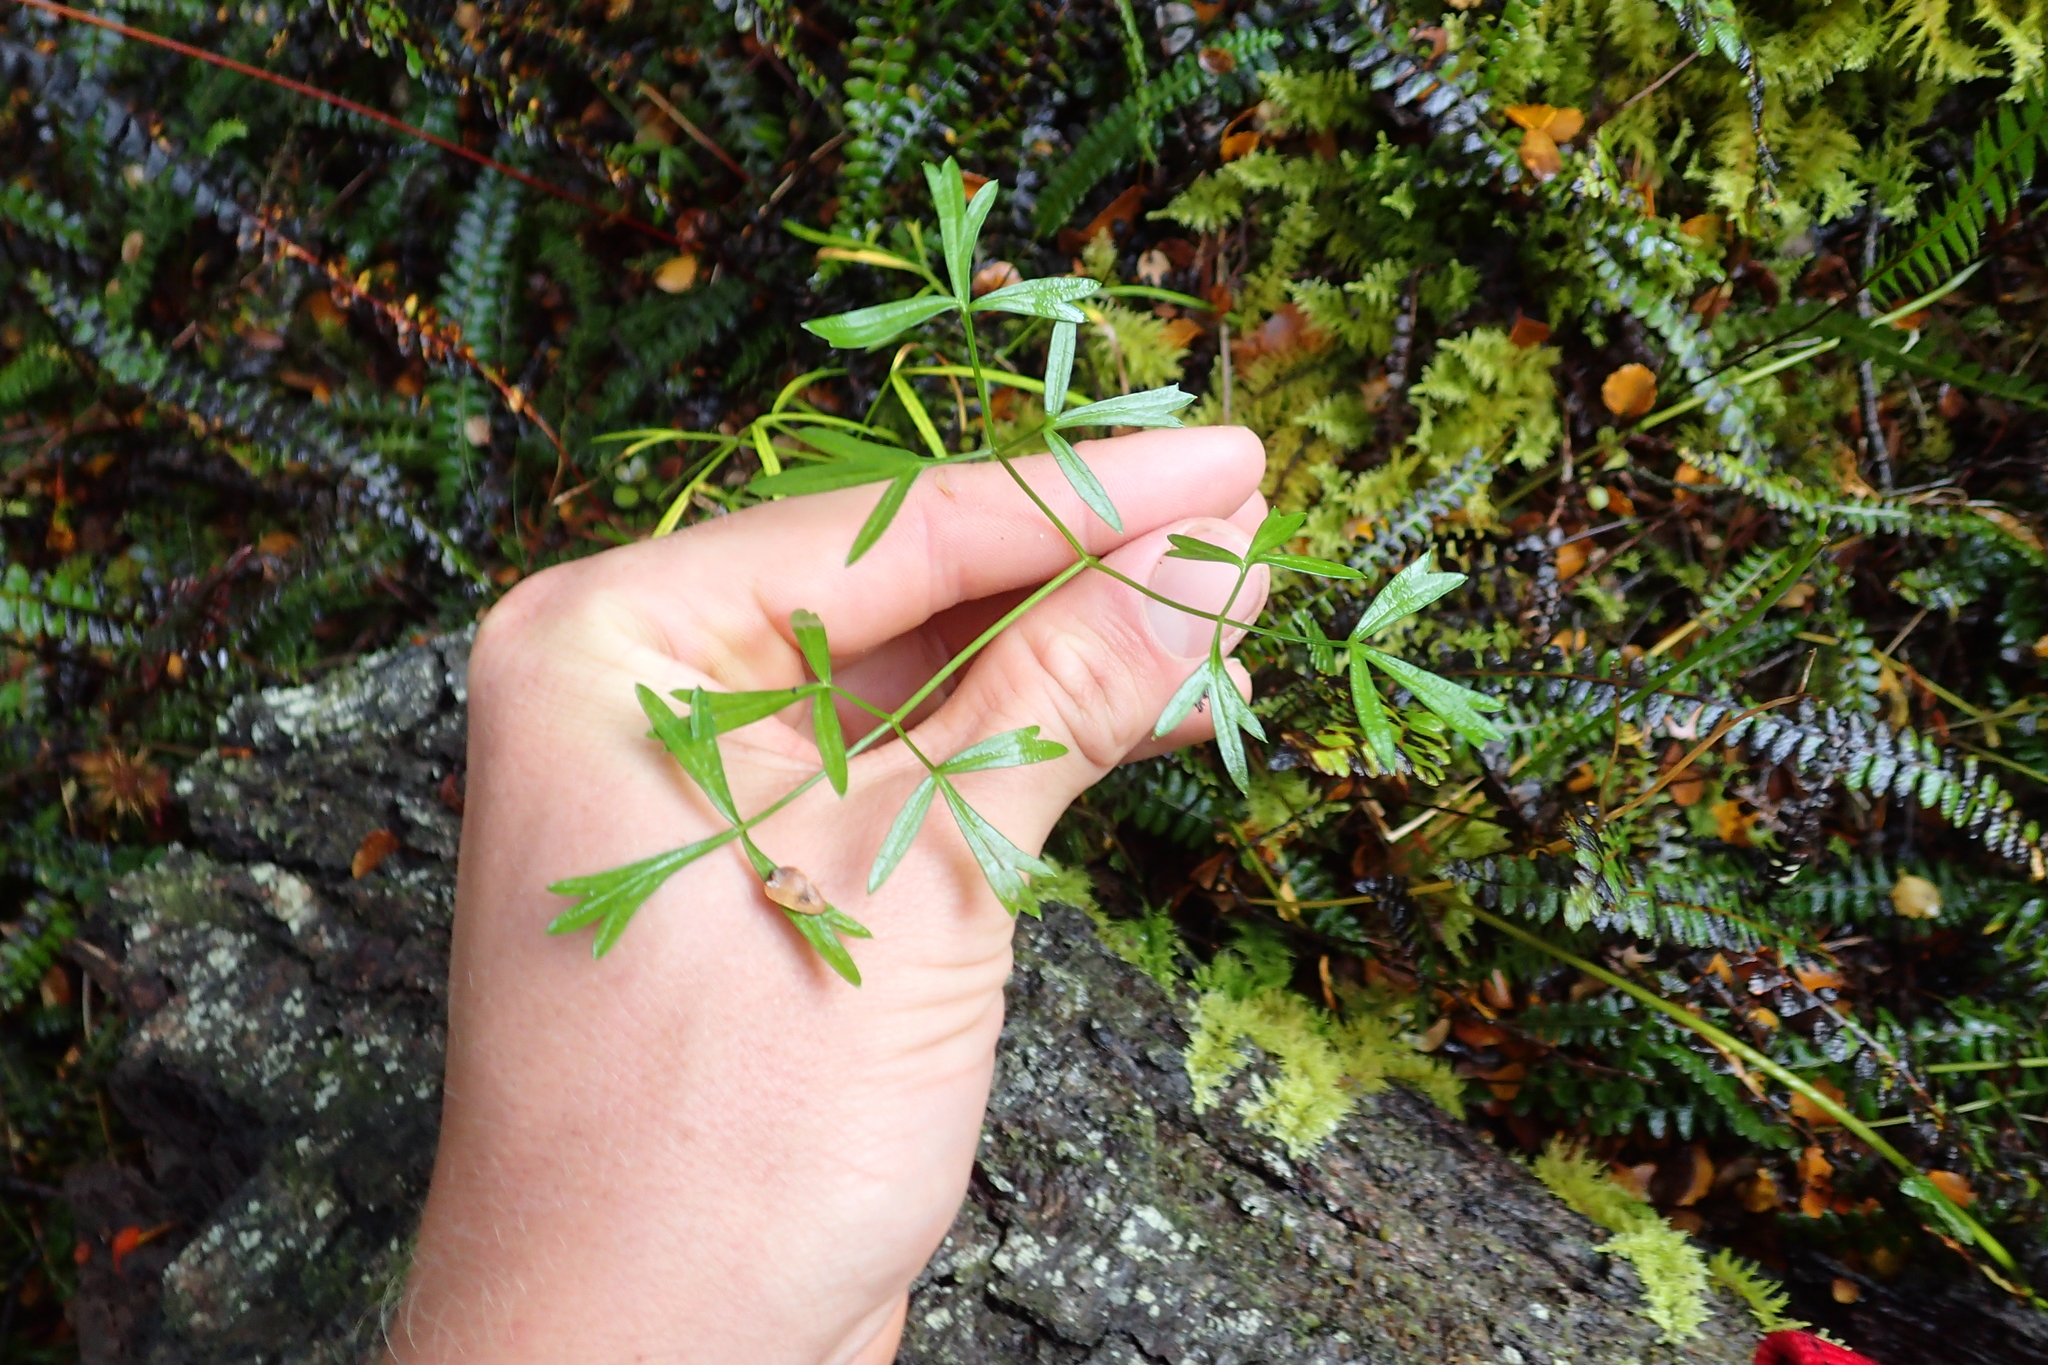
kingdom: Plantae
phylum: Tracheophyta
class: Magnoliopsida
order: Apiales
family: Apiaceae
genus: Anisotome
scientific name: Anisotome filifolia
